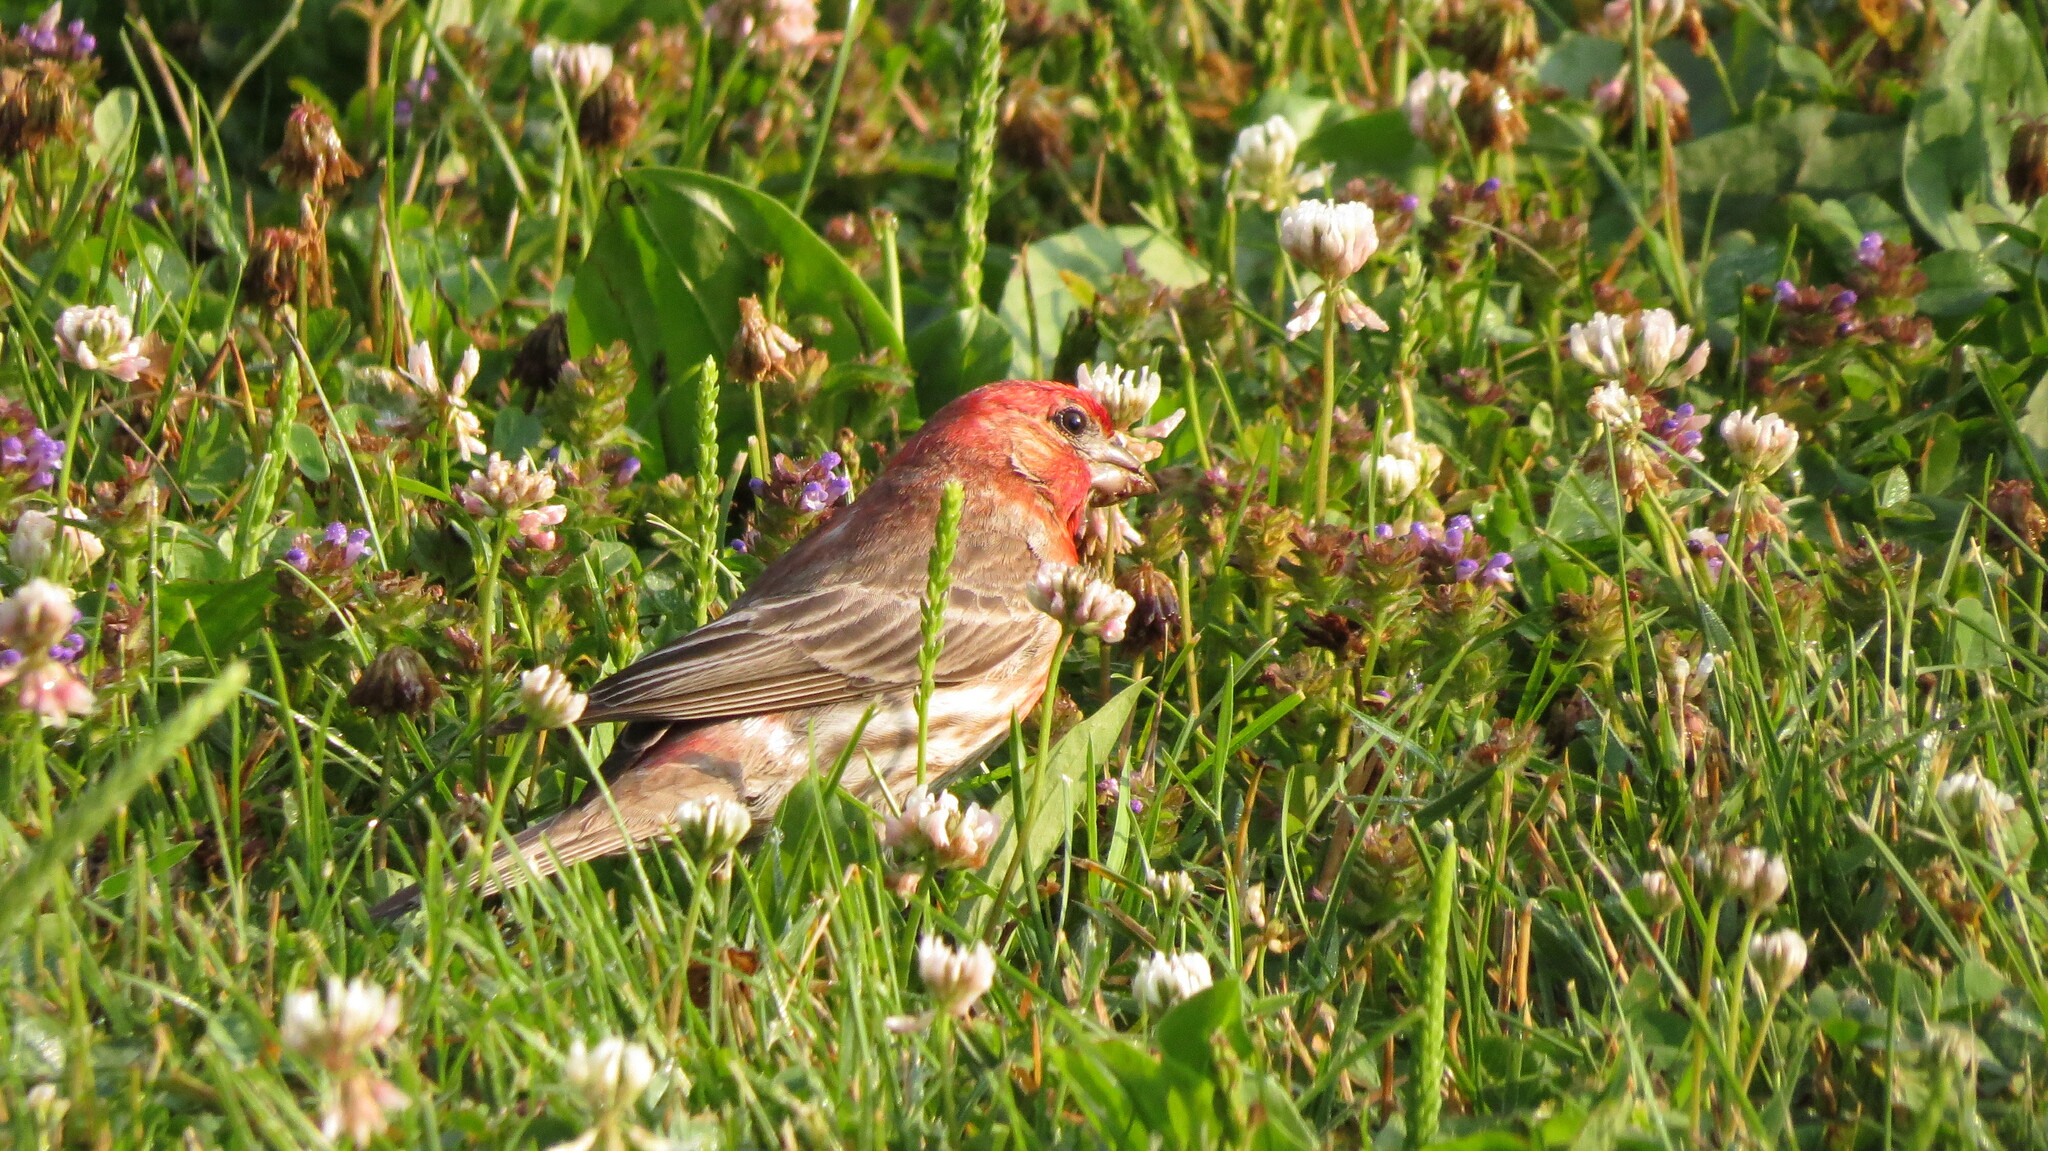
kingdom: Animalia
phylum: Chordata
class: Aves
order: Passeriformes
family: Fringillidae
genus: Haemorhous
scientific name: Haemorhous mexicanus
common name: House finch
